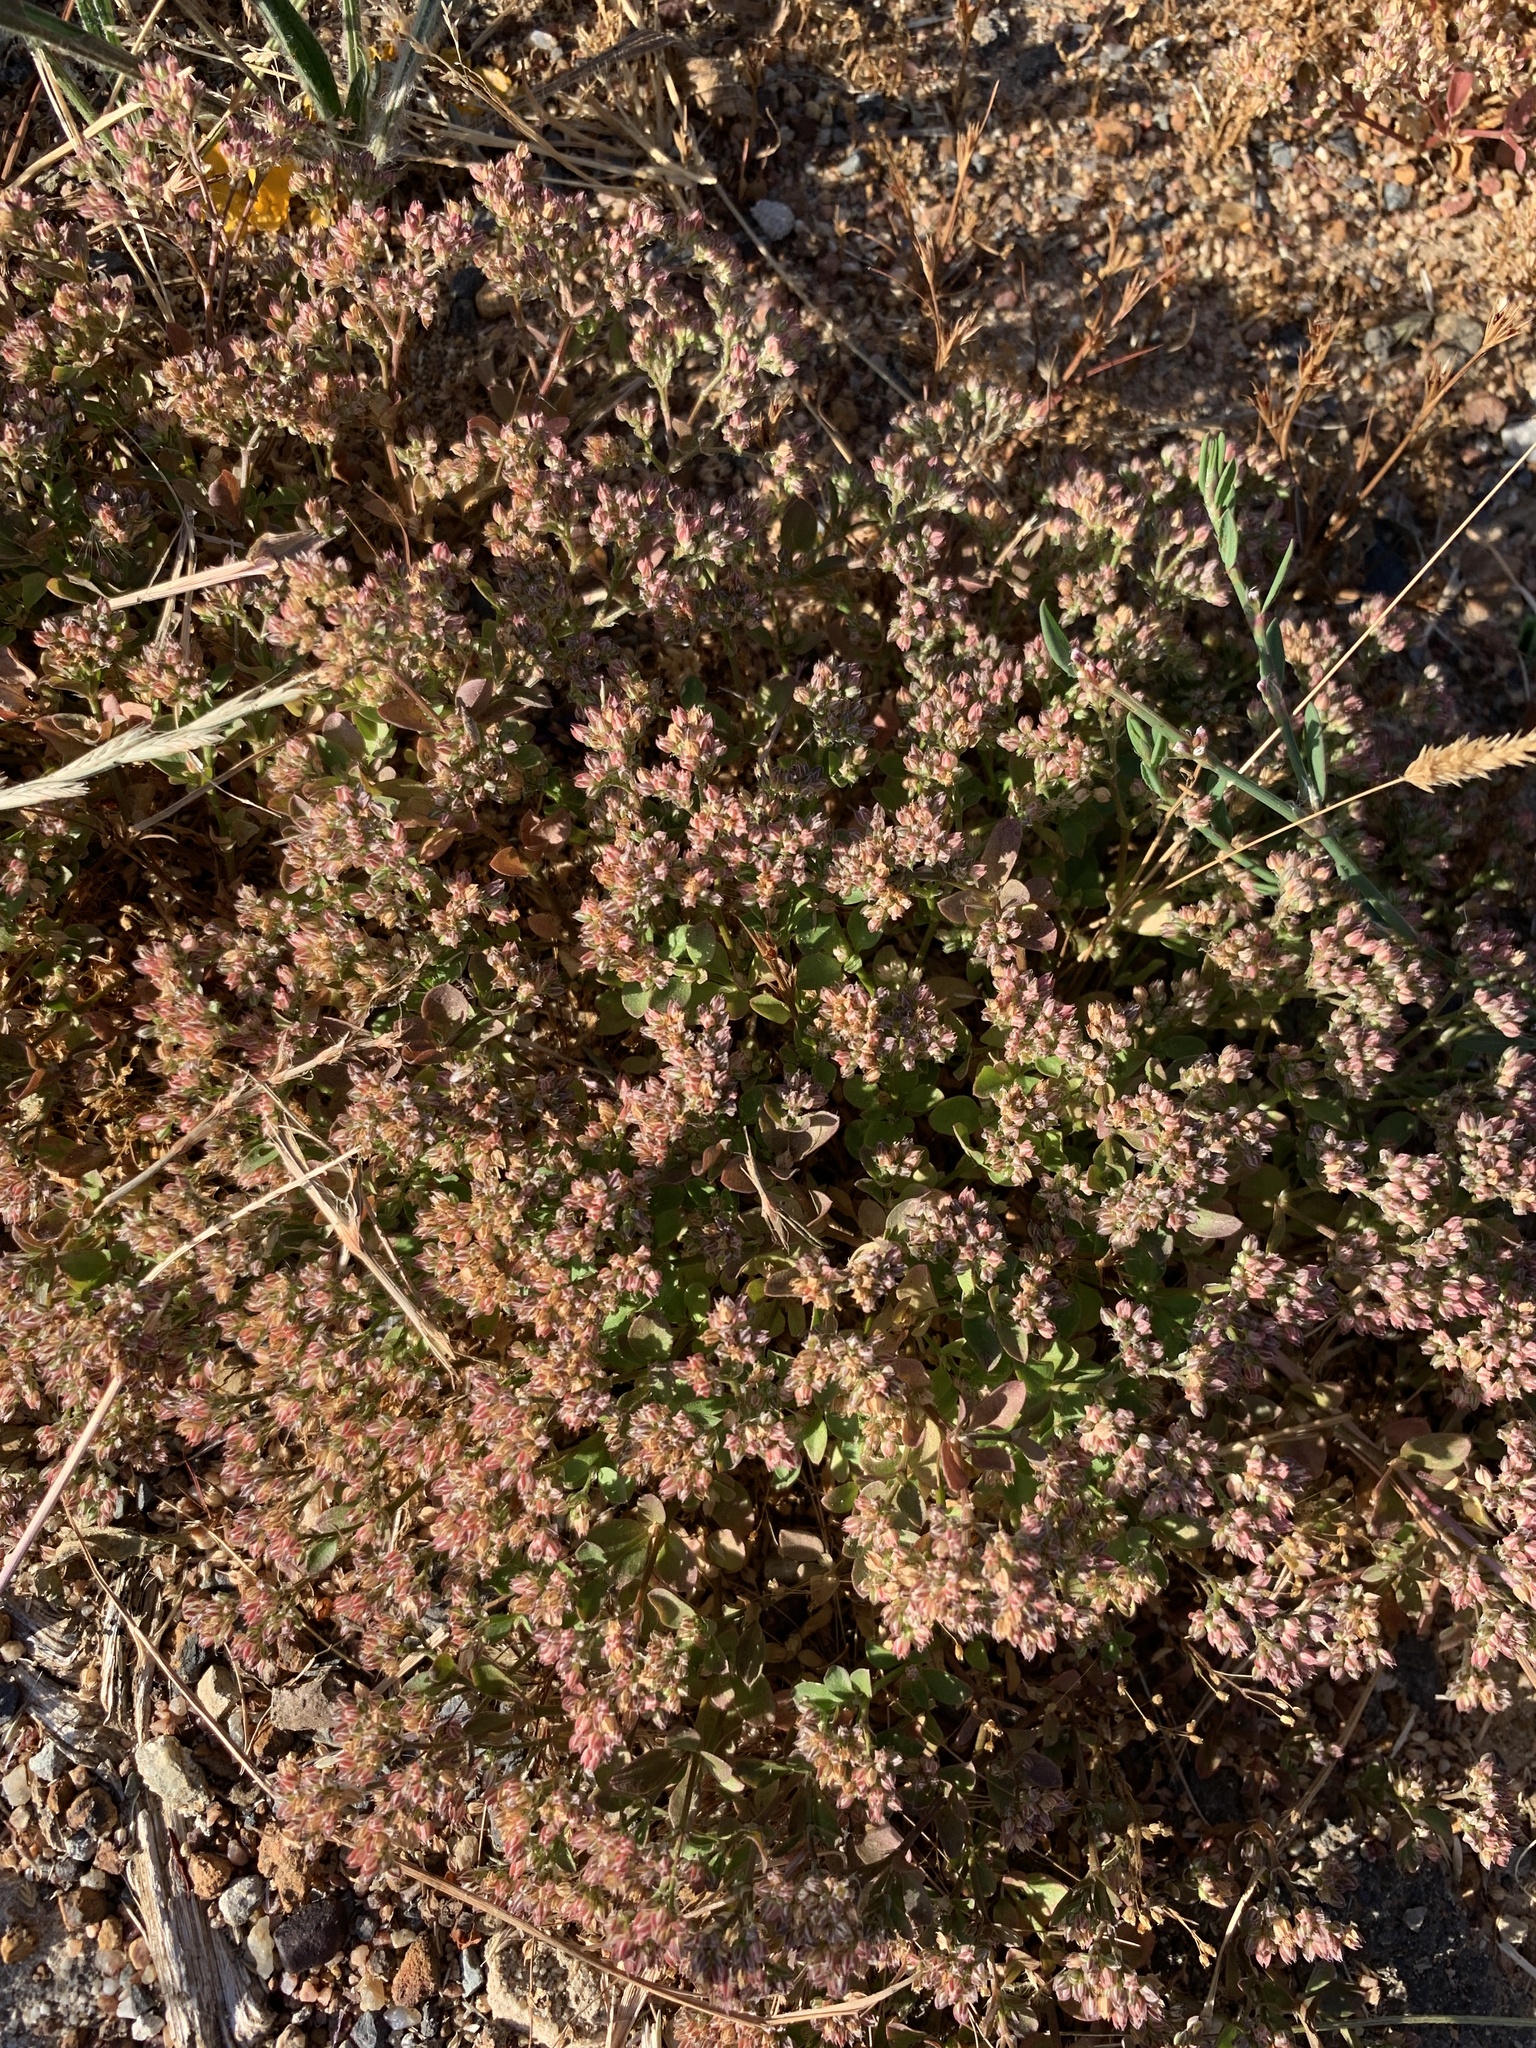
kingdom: Plantae
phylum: Tracheophyta
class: Magnoliopsida
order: Caryophyllales
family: Caryophyllaceae
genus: Polycarpon
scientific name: Polycarpon tetraphyllum
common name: Four-leaved all-seed
